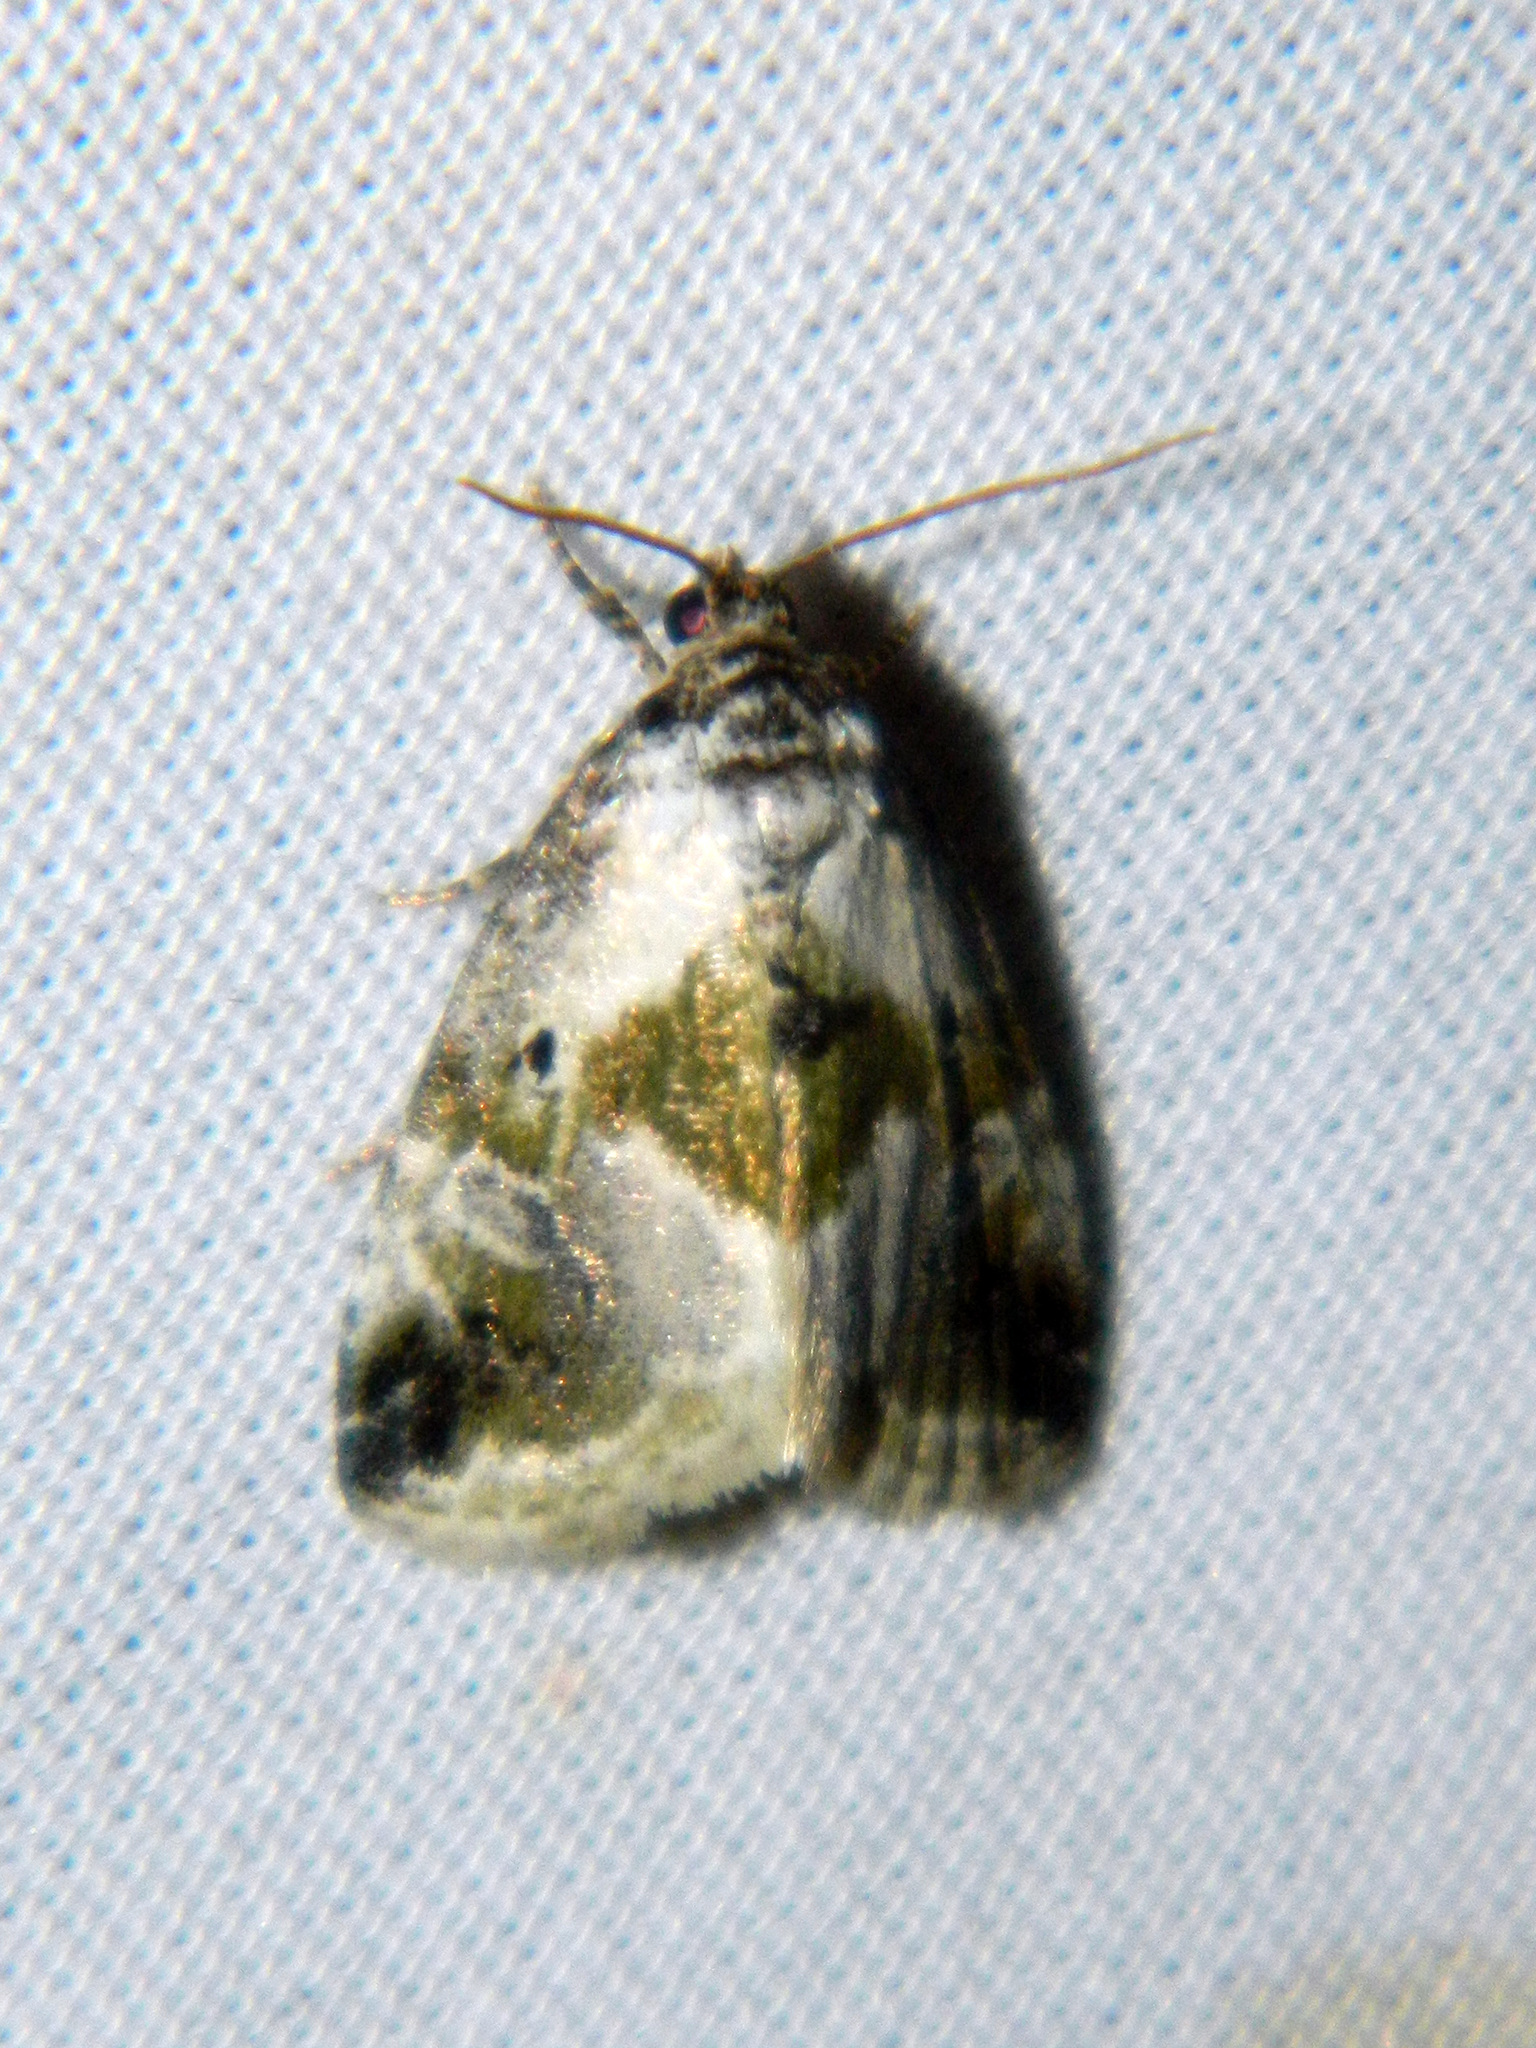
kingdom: Animalia
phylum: Arthropoda
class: Insecta
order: Lepidoptera
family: Noctuidae
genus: Maliattha
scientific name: Maliattha synochitis
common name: Black-dotted glyph
